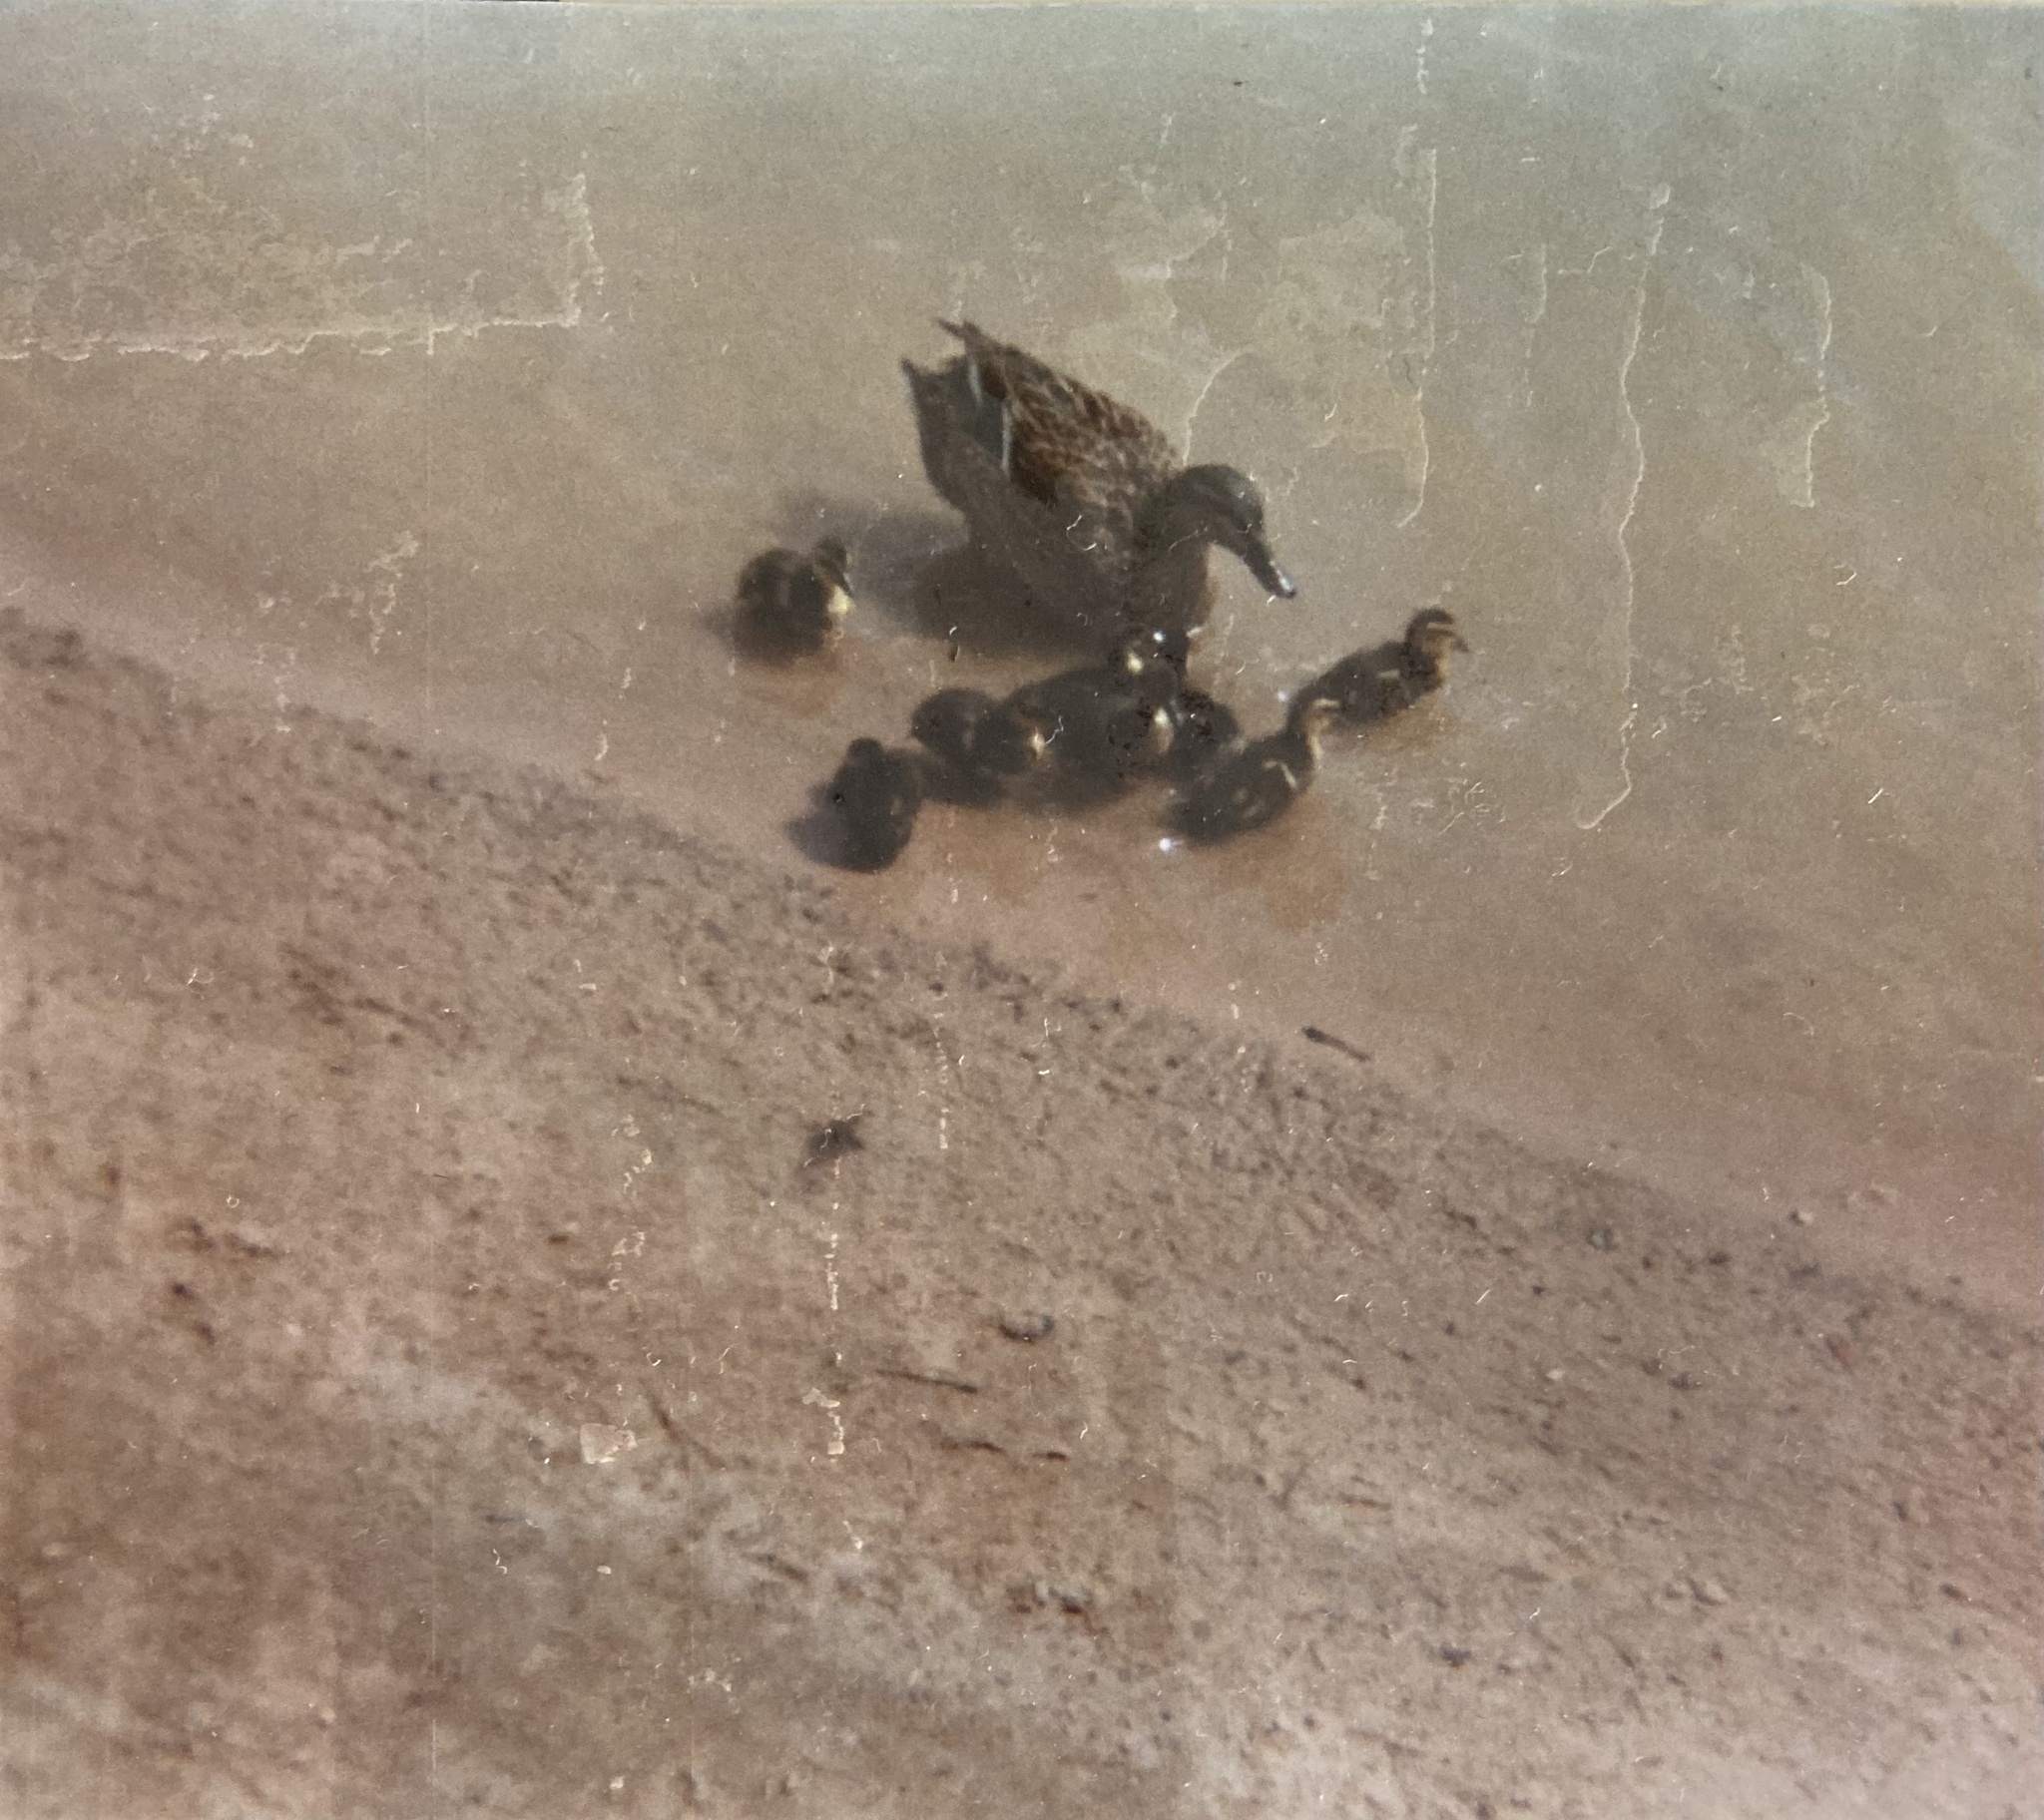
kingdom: Animalia
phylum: Chordata
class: Aves
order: Anseriformes
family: Anatidae
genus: Anas
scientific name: Anas platyrhynchos
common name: Mallard
